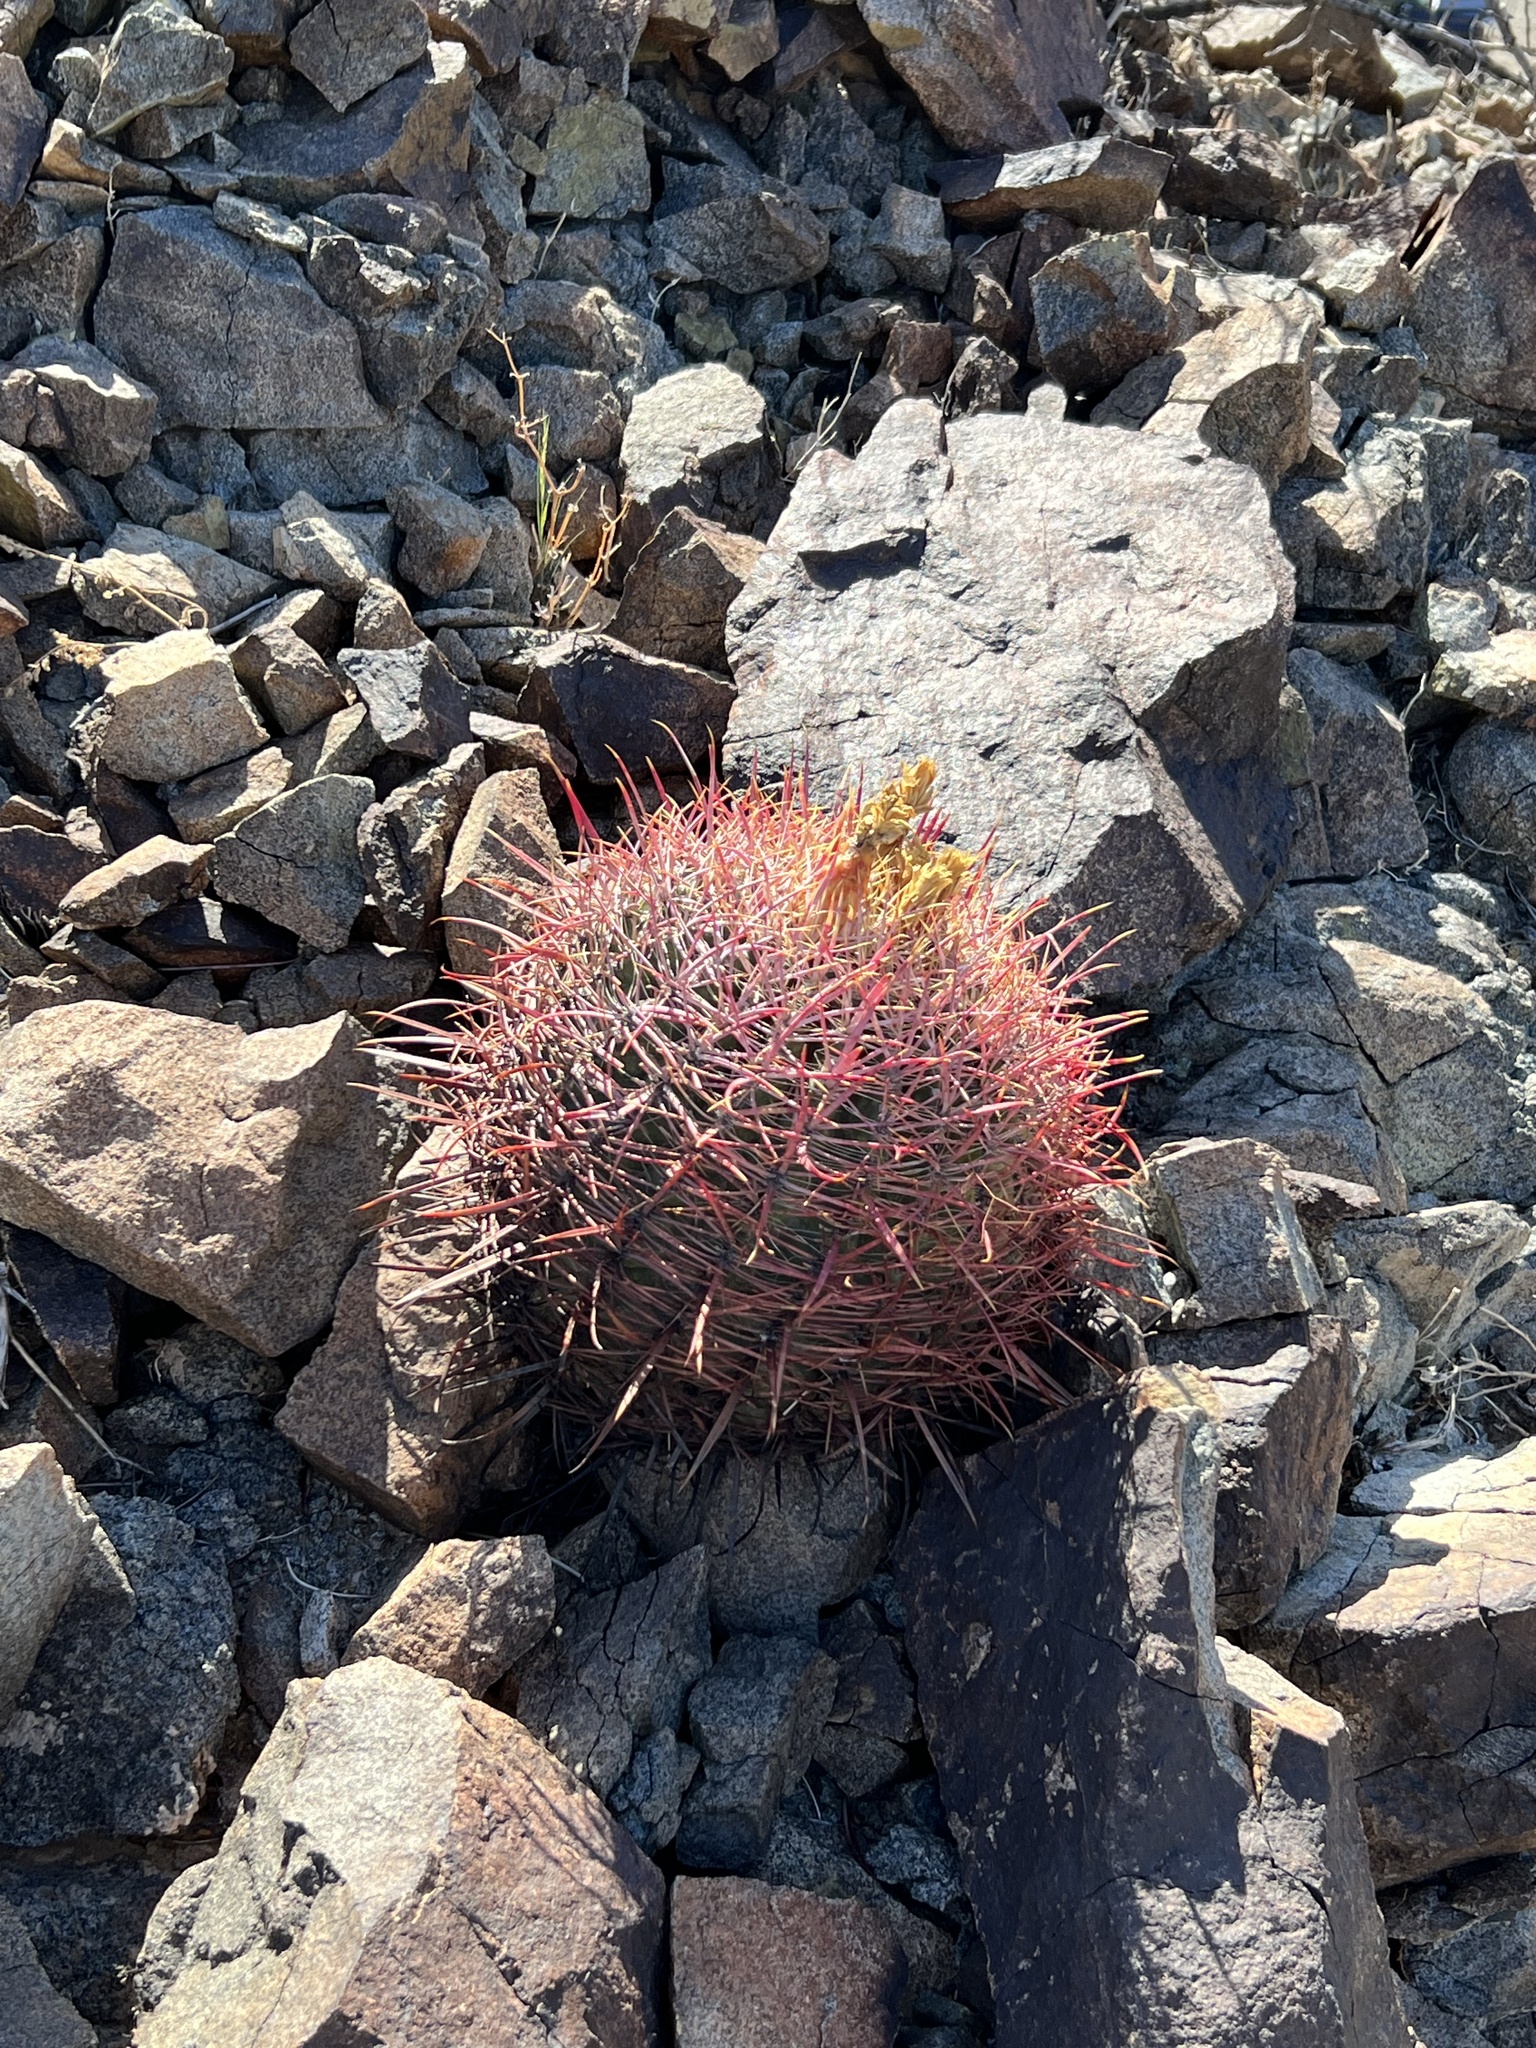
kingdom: Plantae
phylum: Tracheophyta
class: Magnoliopsida
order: Caryophyllales
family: Cactaceae
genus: Ferocactus
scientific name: Ferocactus cylindraceus
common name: California barrel cactus
